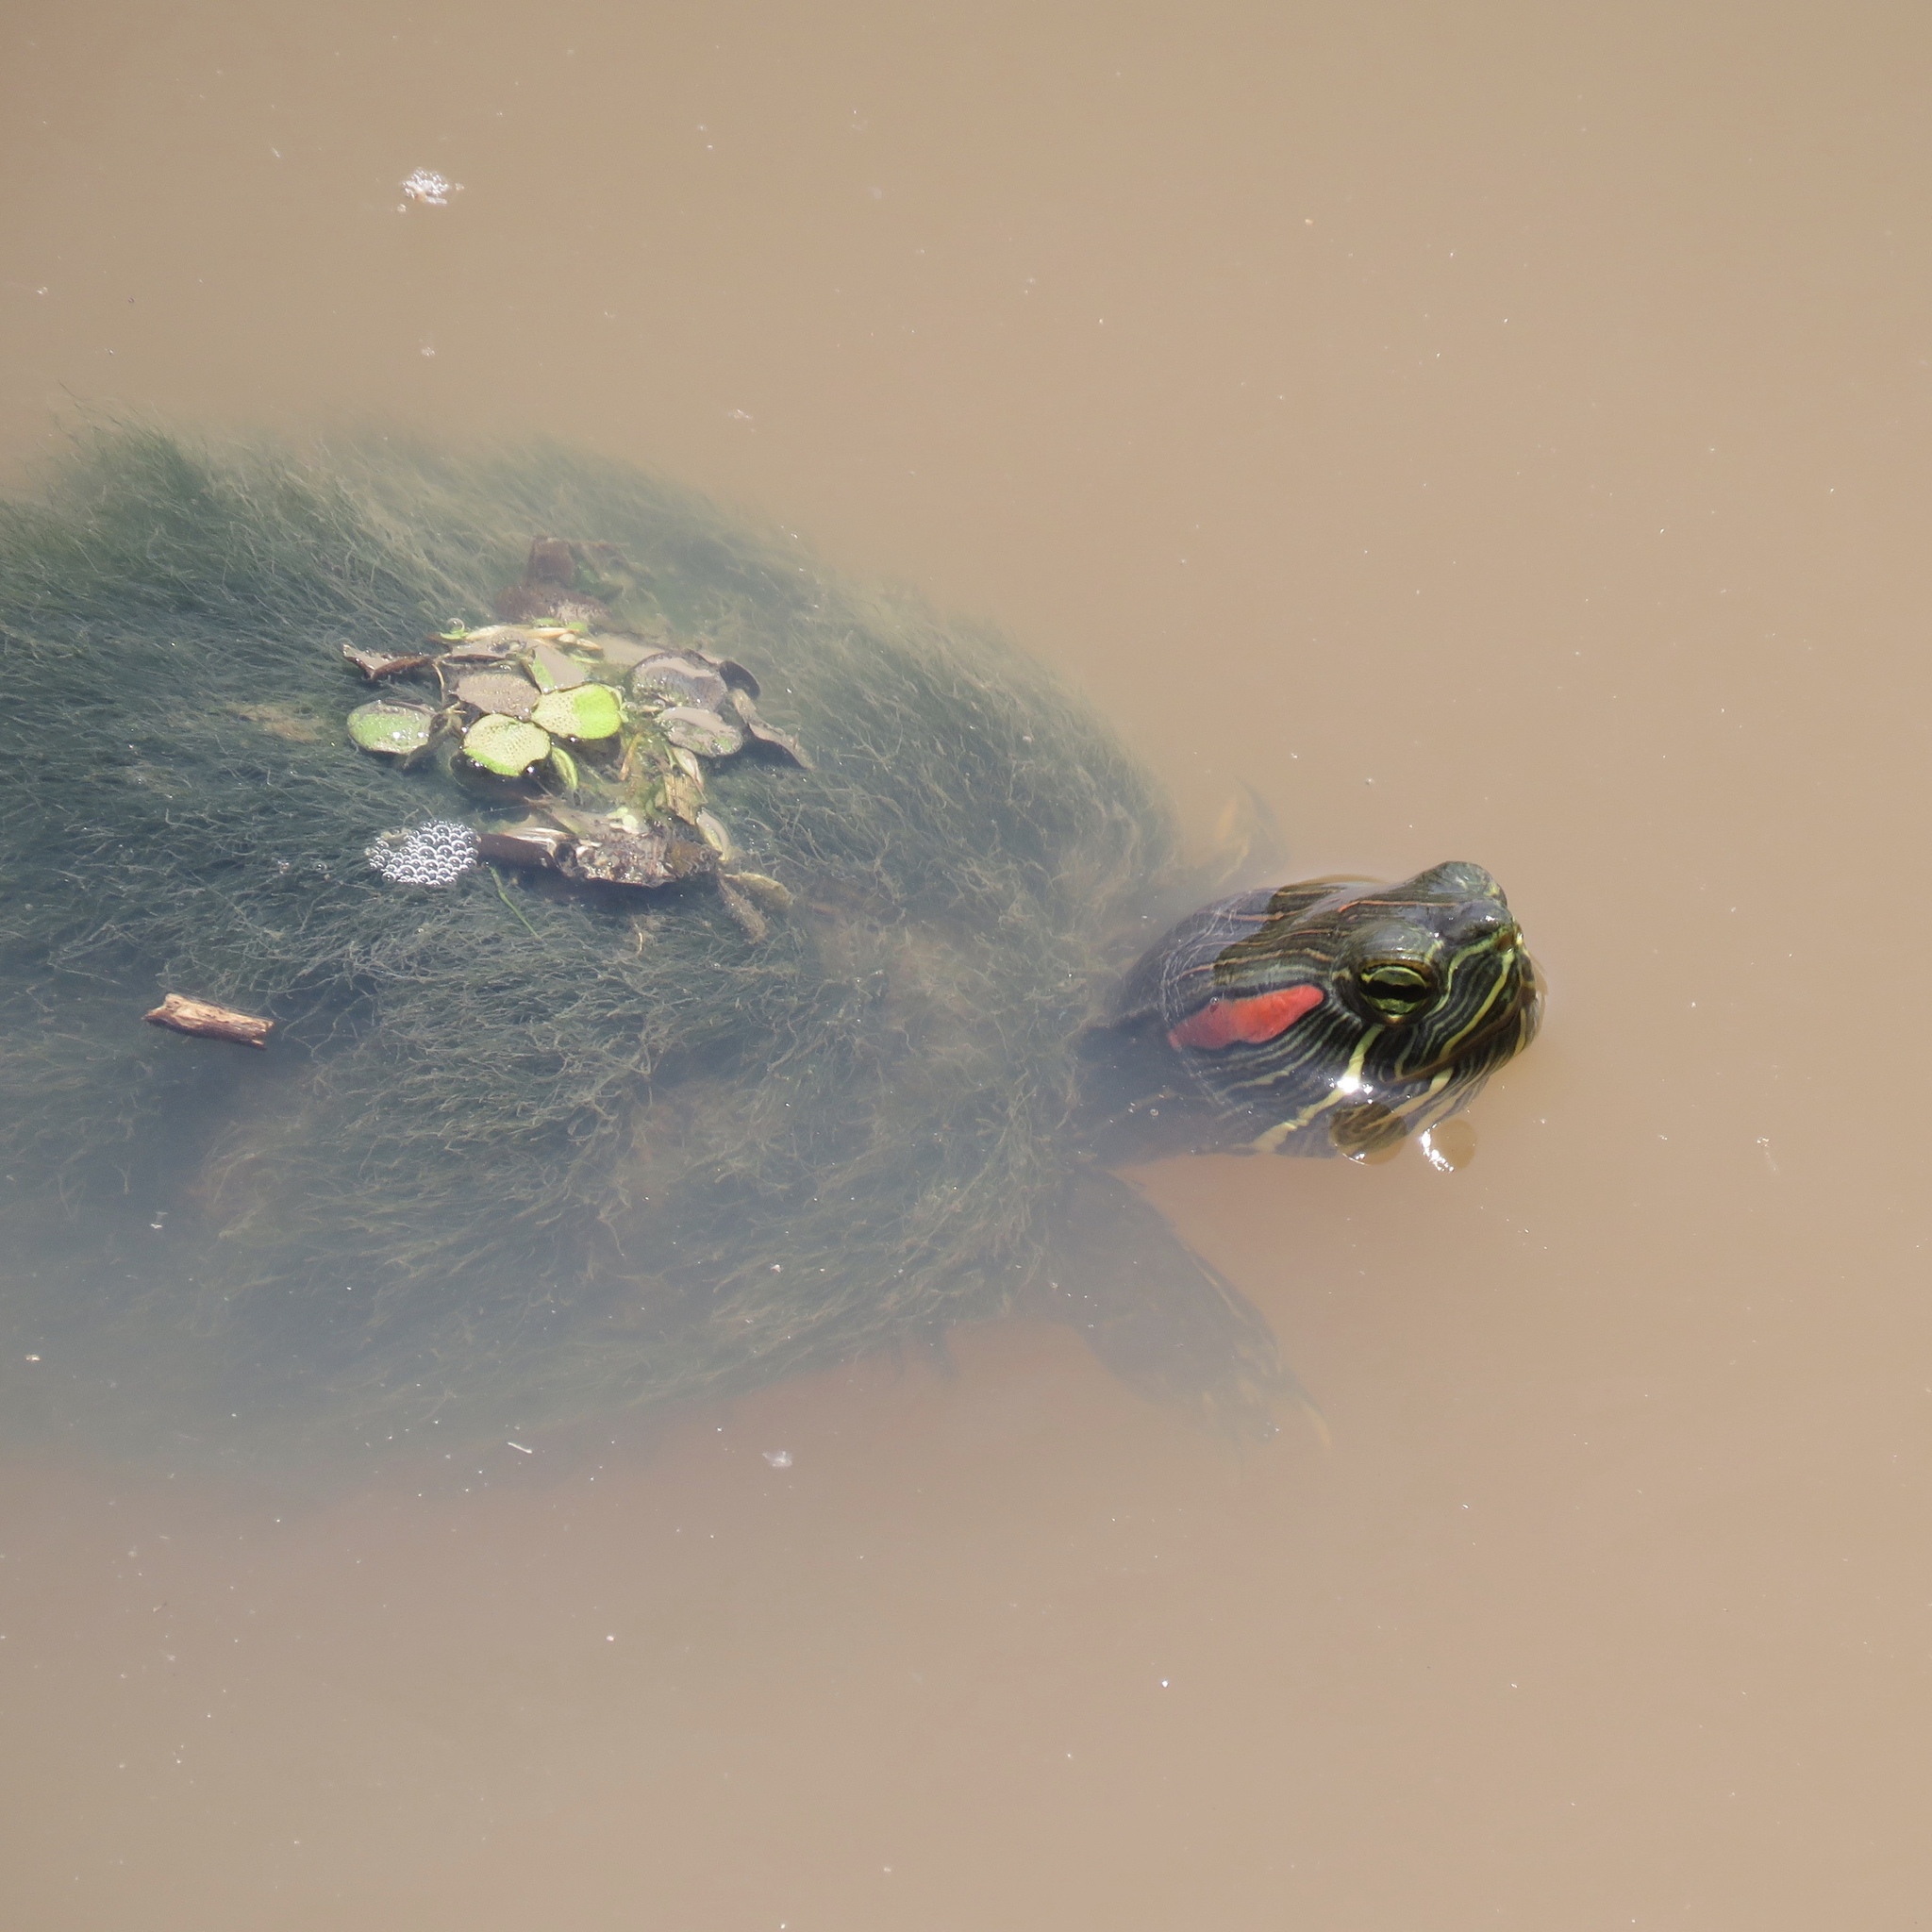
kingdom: Animalia
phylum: Chordata
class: Testudines
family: Emydidae
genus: Trachemys
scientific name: Trachemys scripta
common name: Slider
